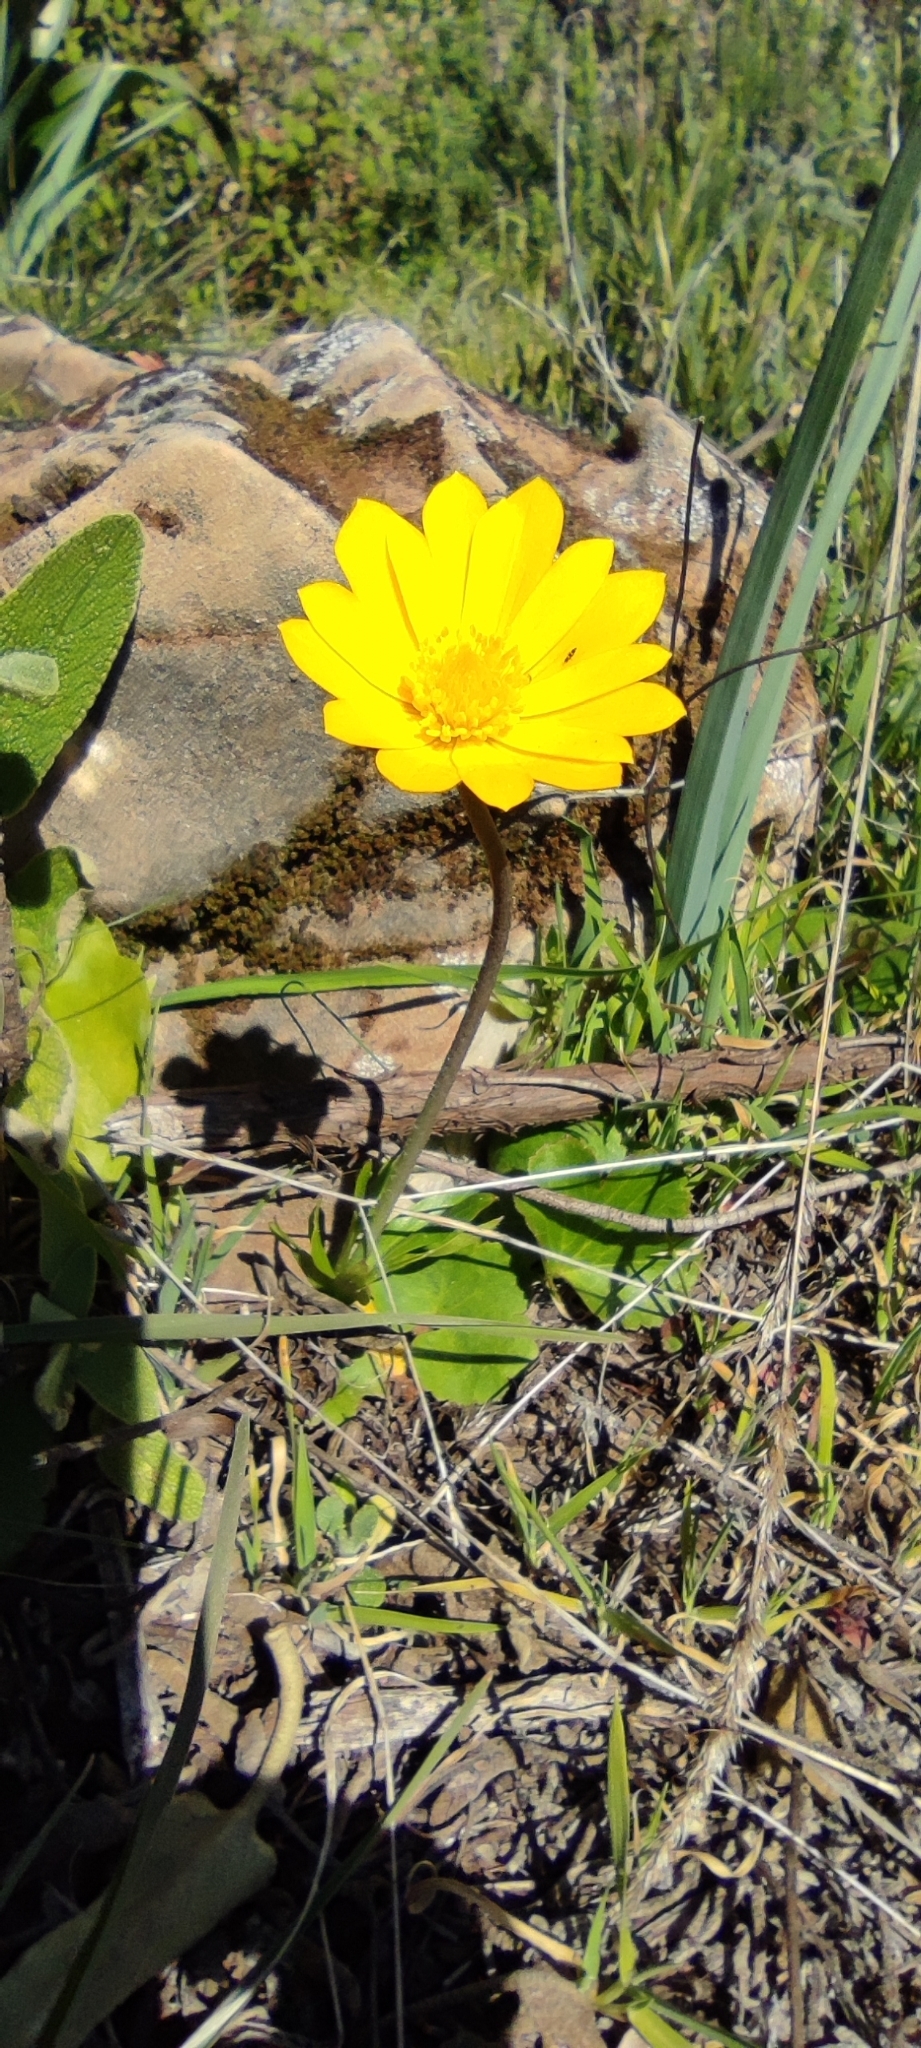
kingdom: Plantae
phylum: Tracheophyta
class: Magnoliopsida
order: Ranunculales
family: Ranunculaceae
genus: Anemone
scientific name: Anemone palmata
